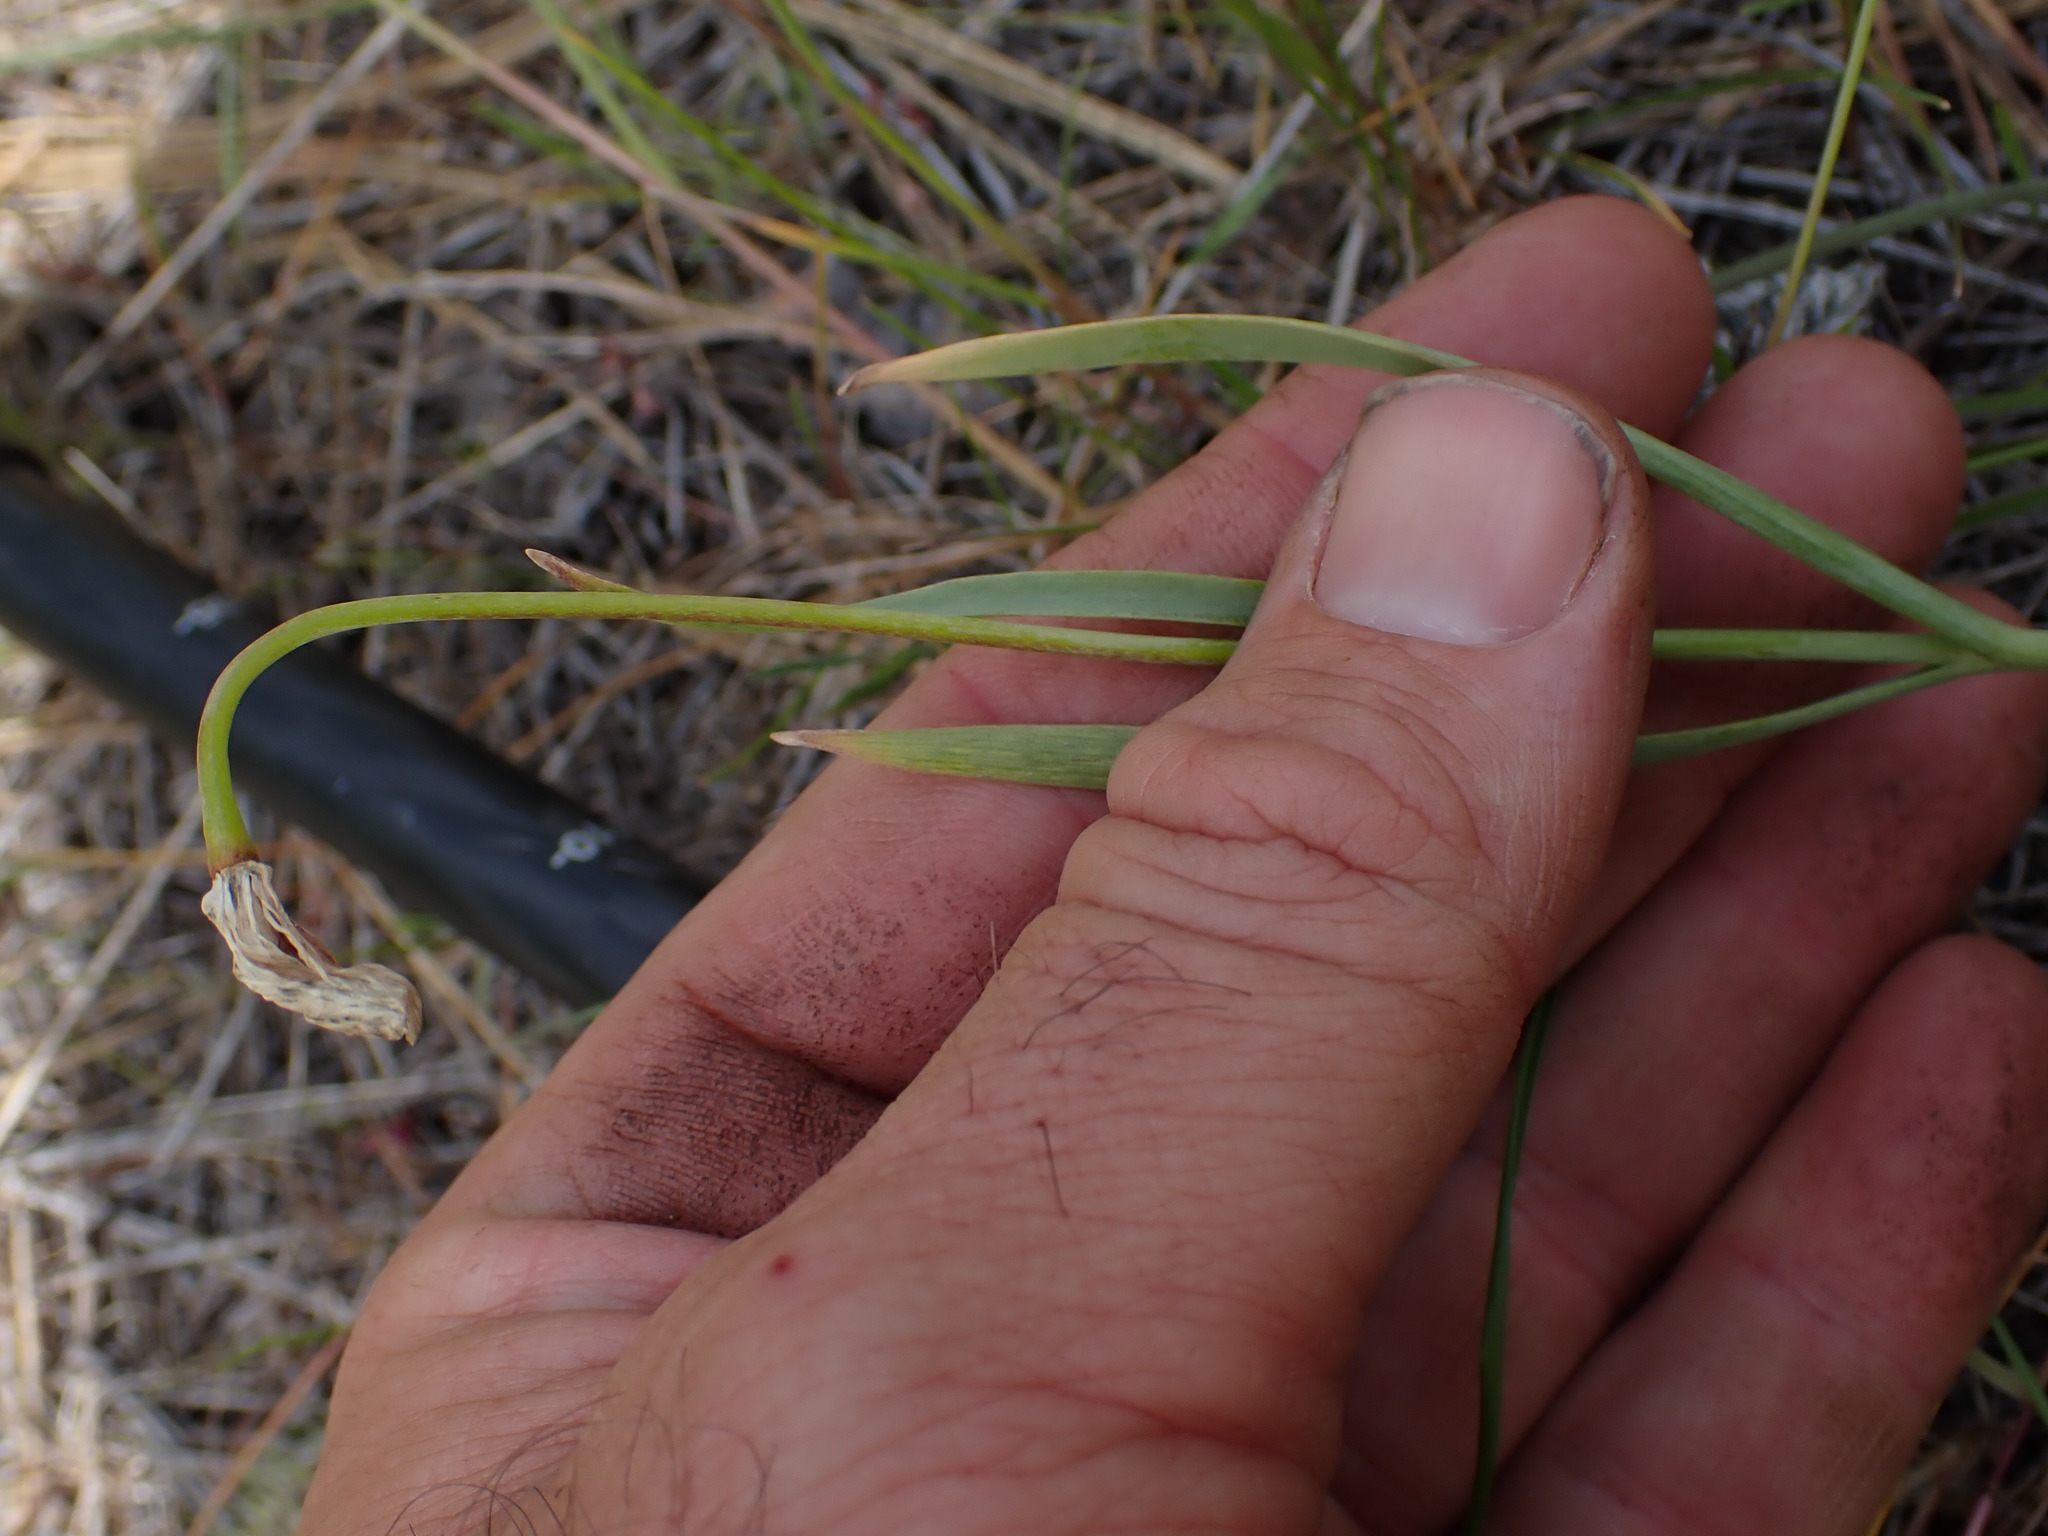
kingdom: Plantae
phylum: Tracheophyta
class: Liliopsida
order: Liliales
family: Liliaceae
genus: Fritillaria
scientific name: Fritillaria pudica
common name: Yellow fritillary
